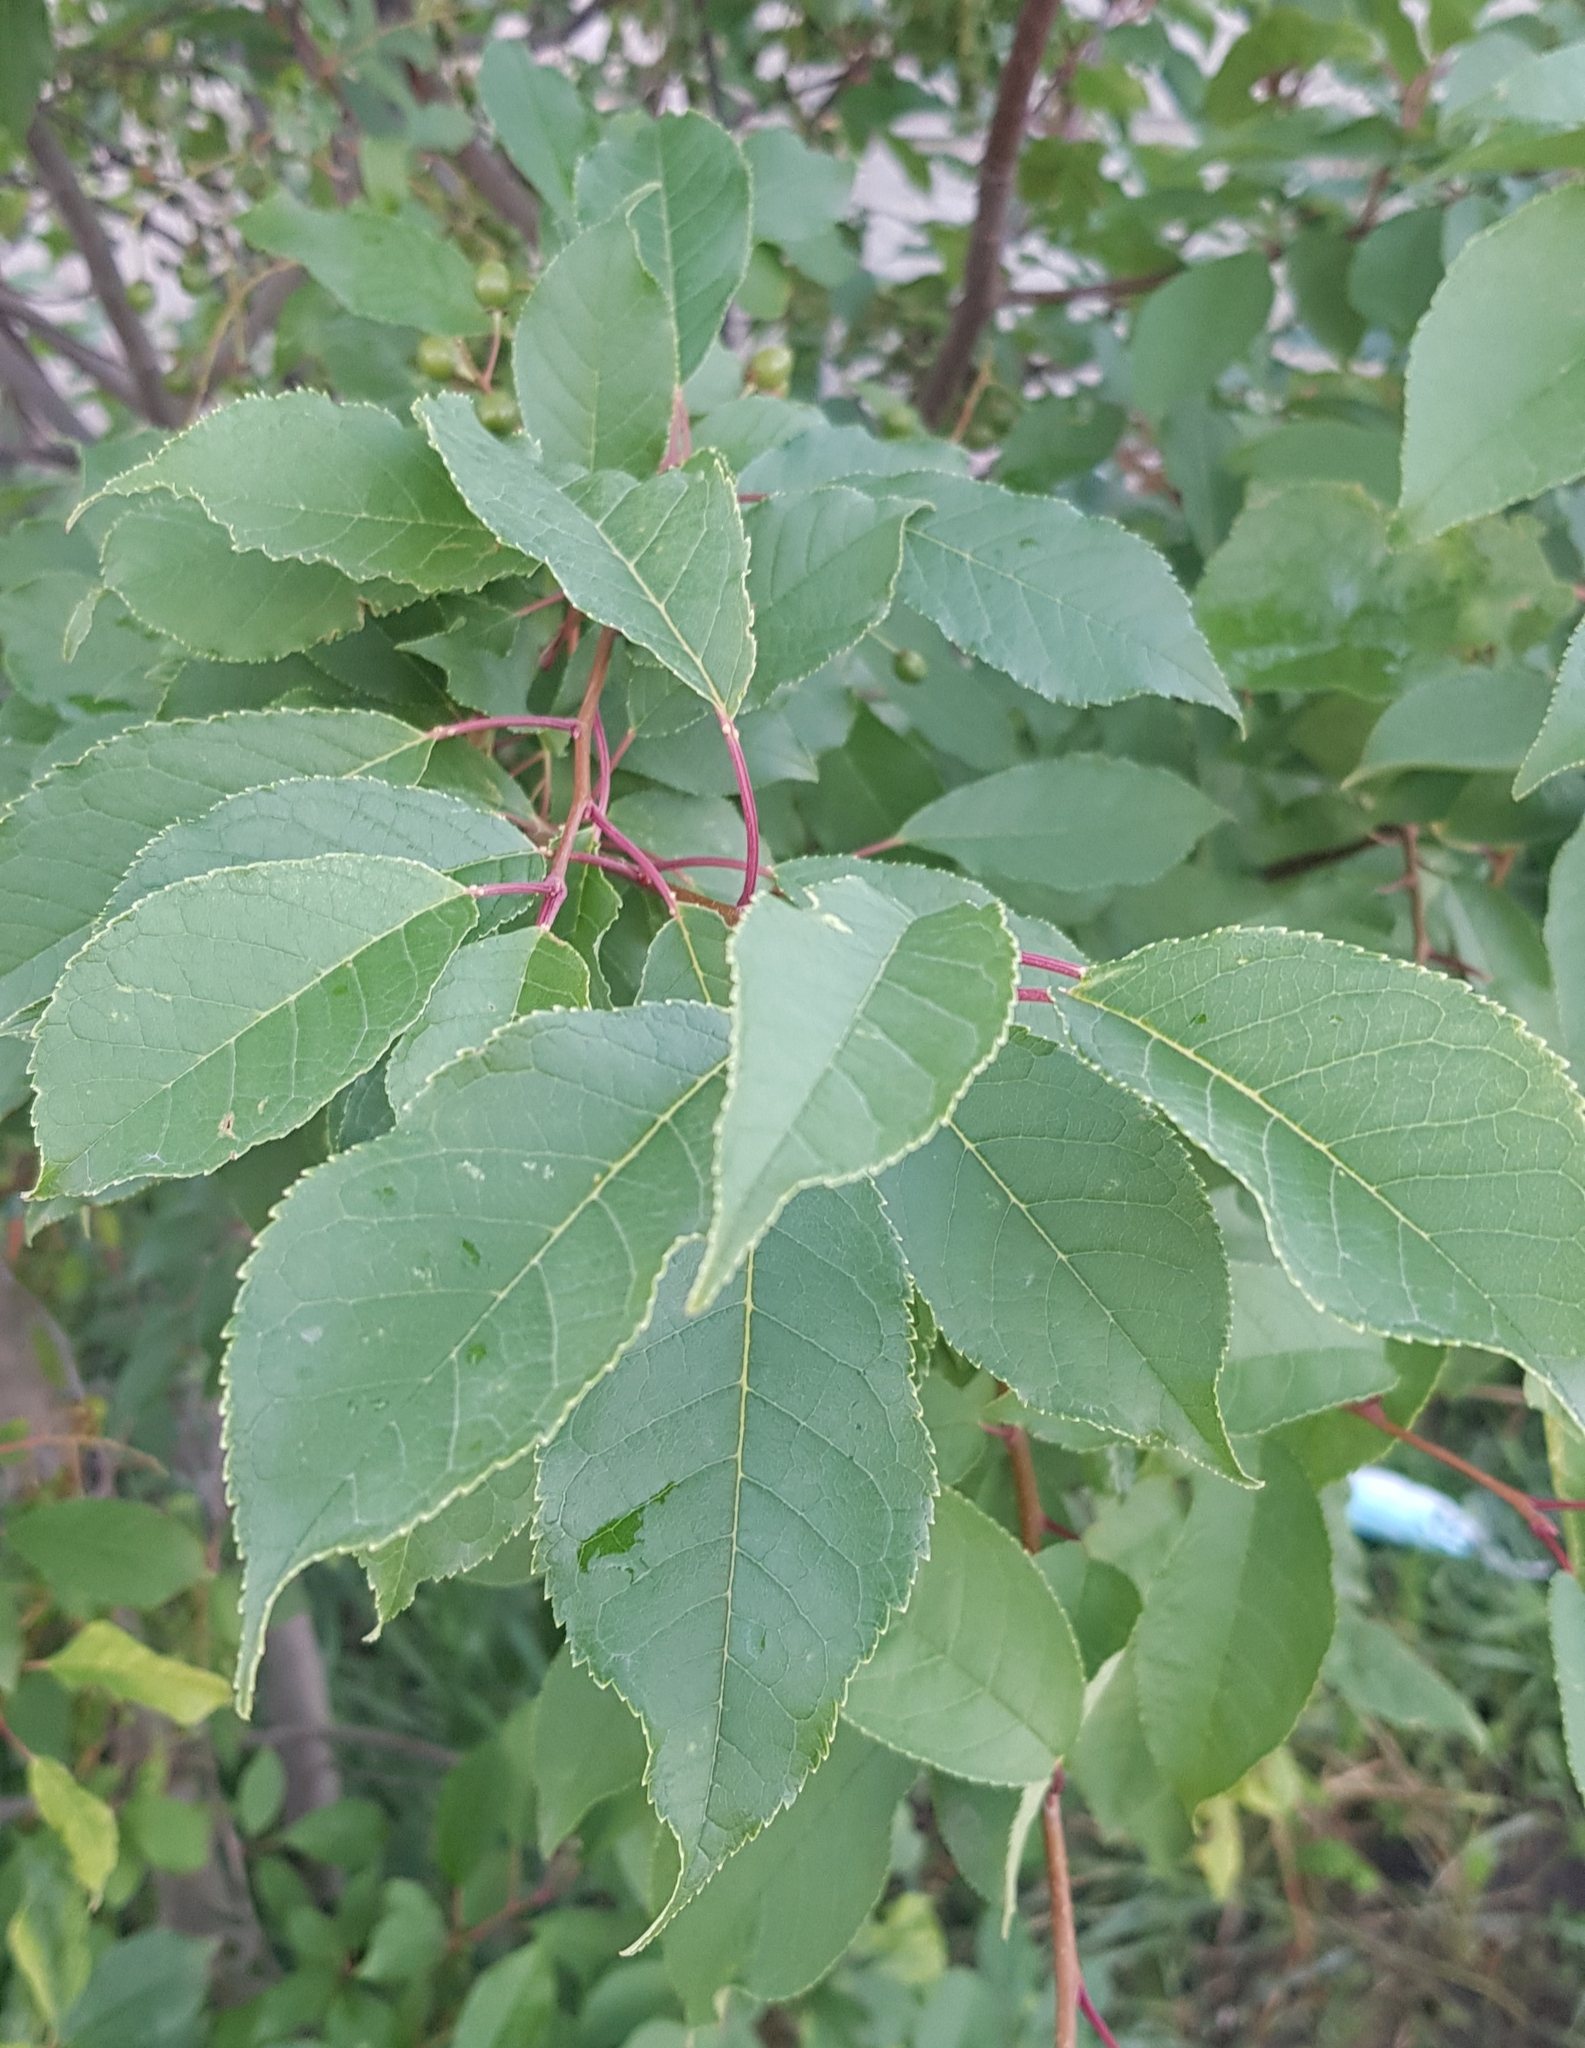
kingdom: Plantae
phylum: Tracheophyta
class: Magnoliopsida
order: Rosales
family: Rosaceae
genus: Prunus
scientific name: Prunus padus
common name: Bird cherry
